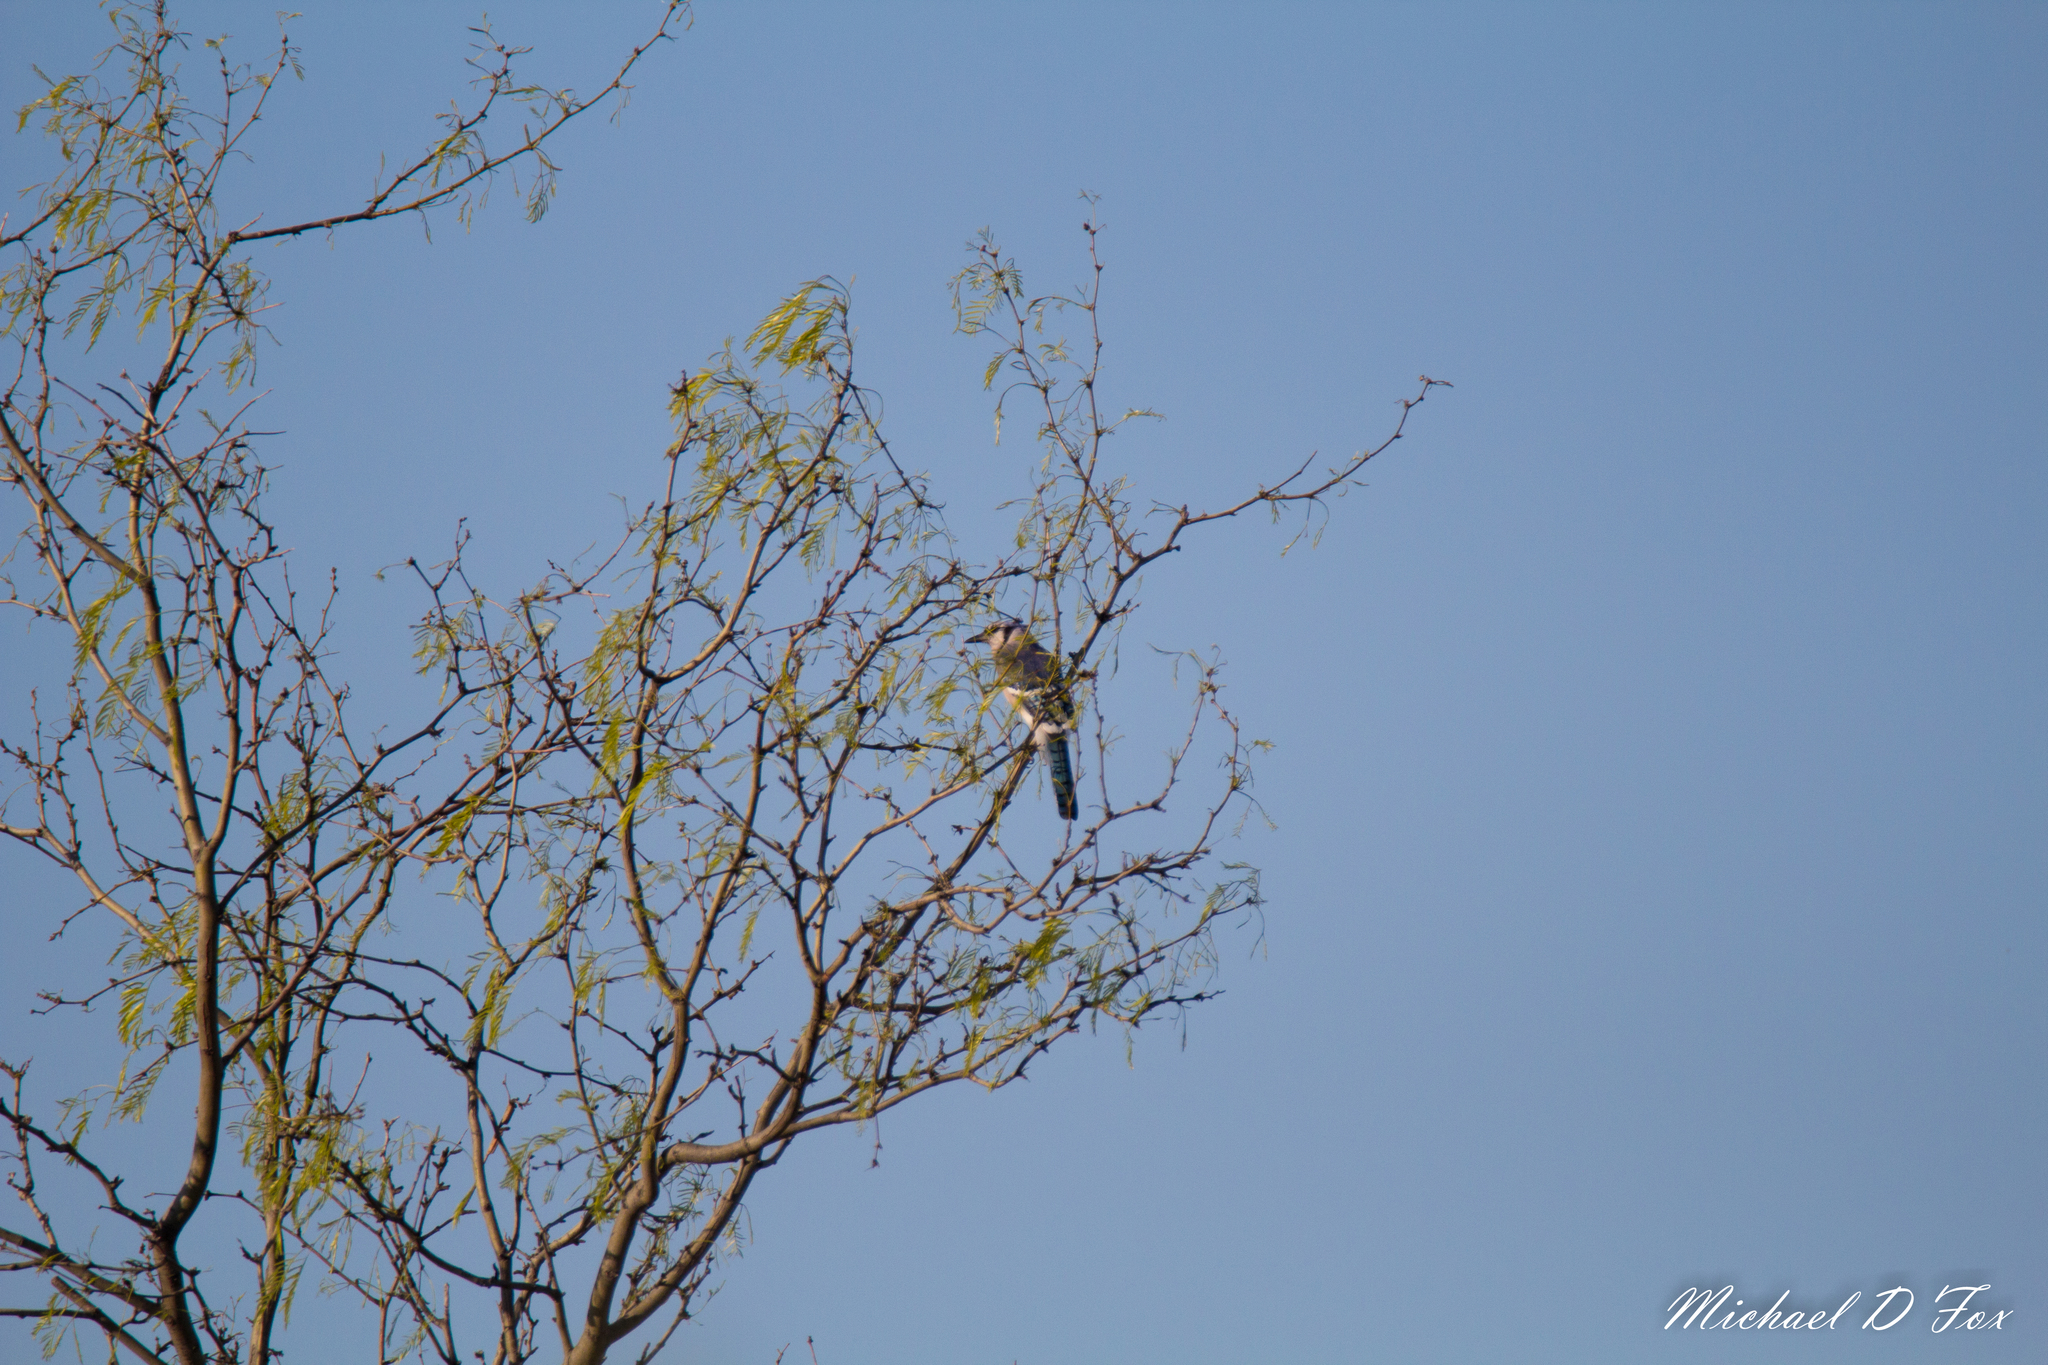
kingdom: Animalia
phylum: Chordata
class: Aves
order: Passeriformes
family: Corvidae
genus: Cyanocitta
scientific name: Cyanocitta cristata
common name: Blue jay
